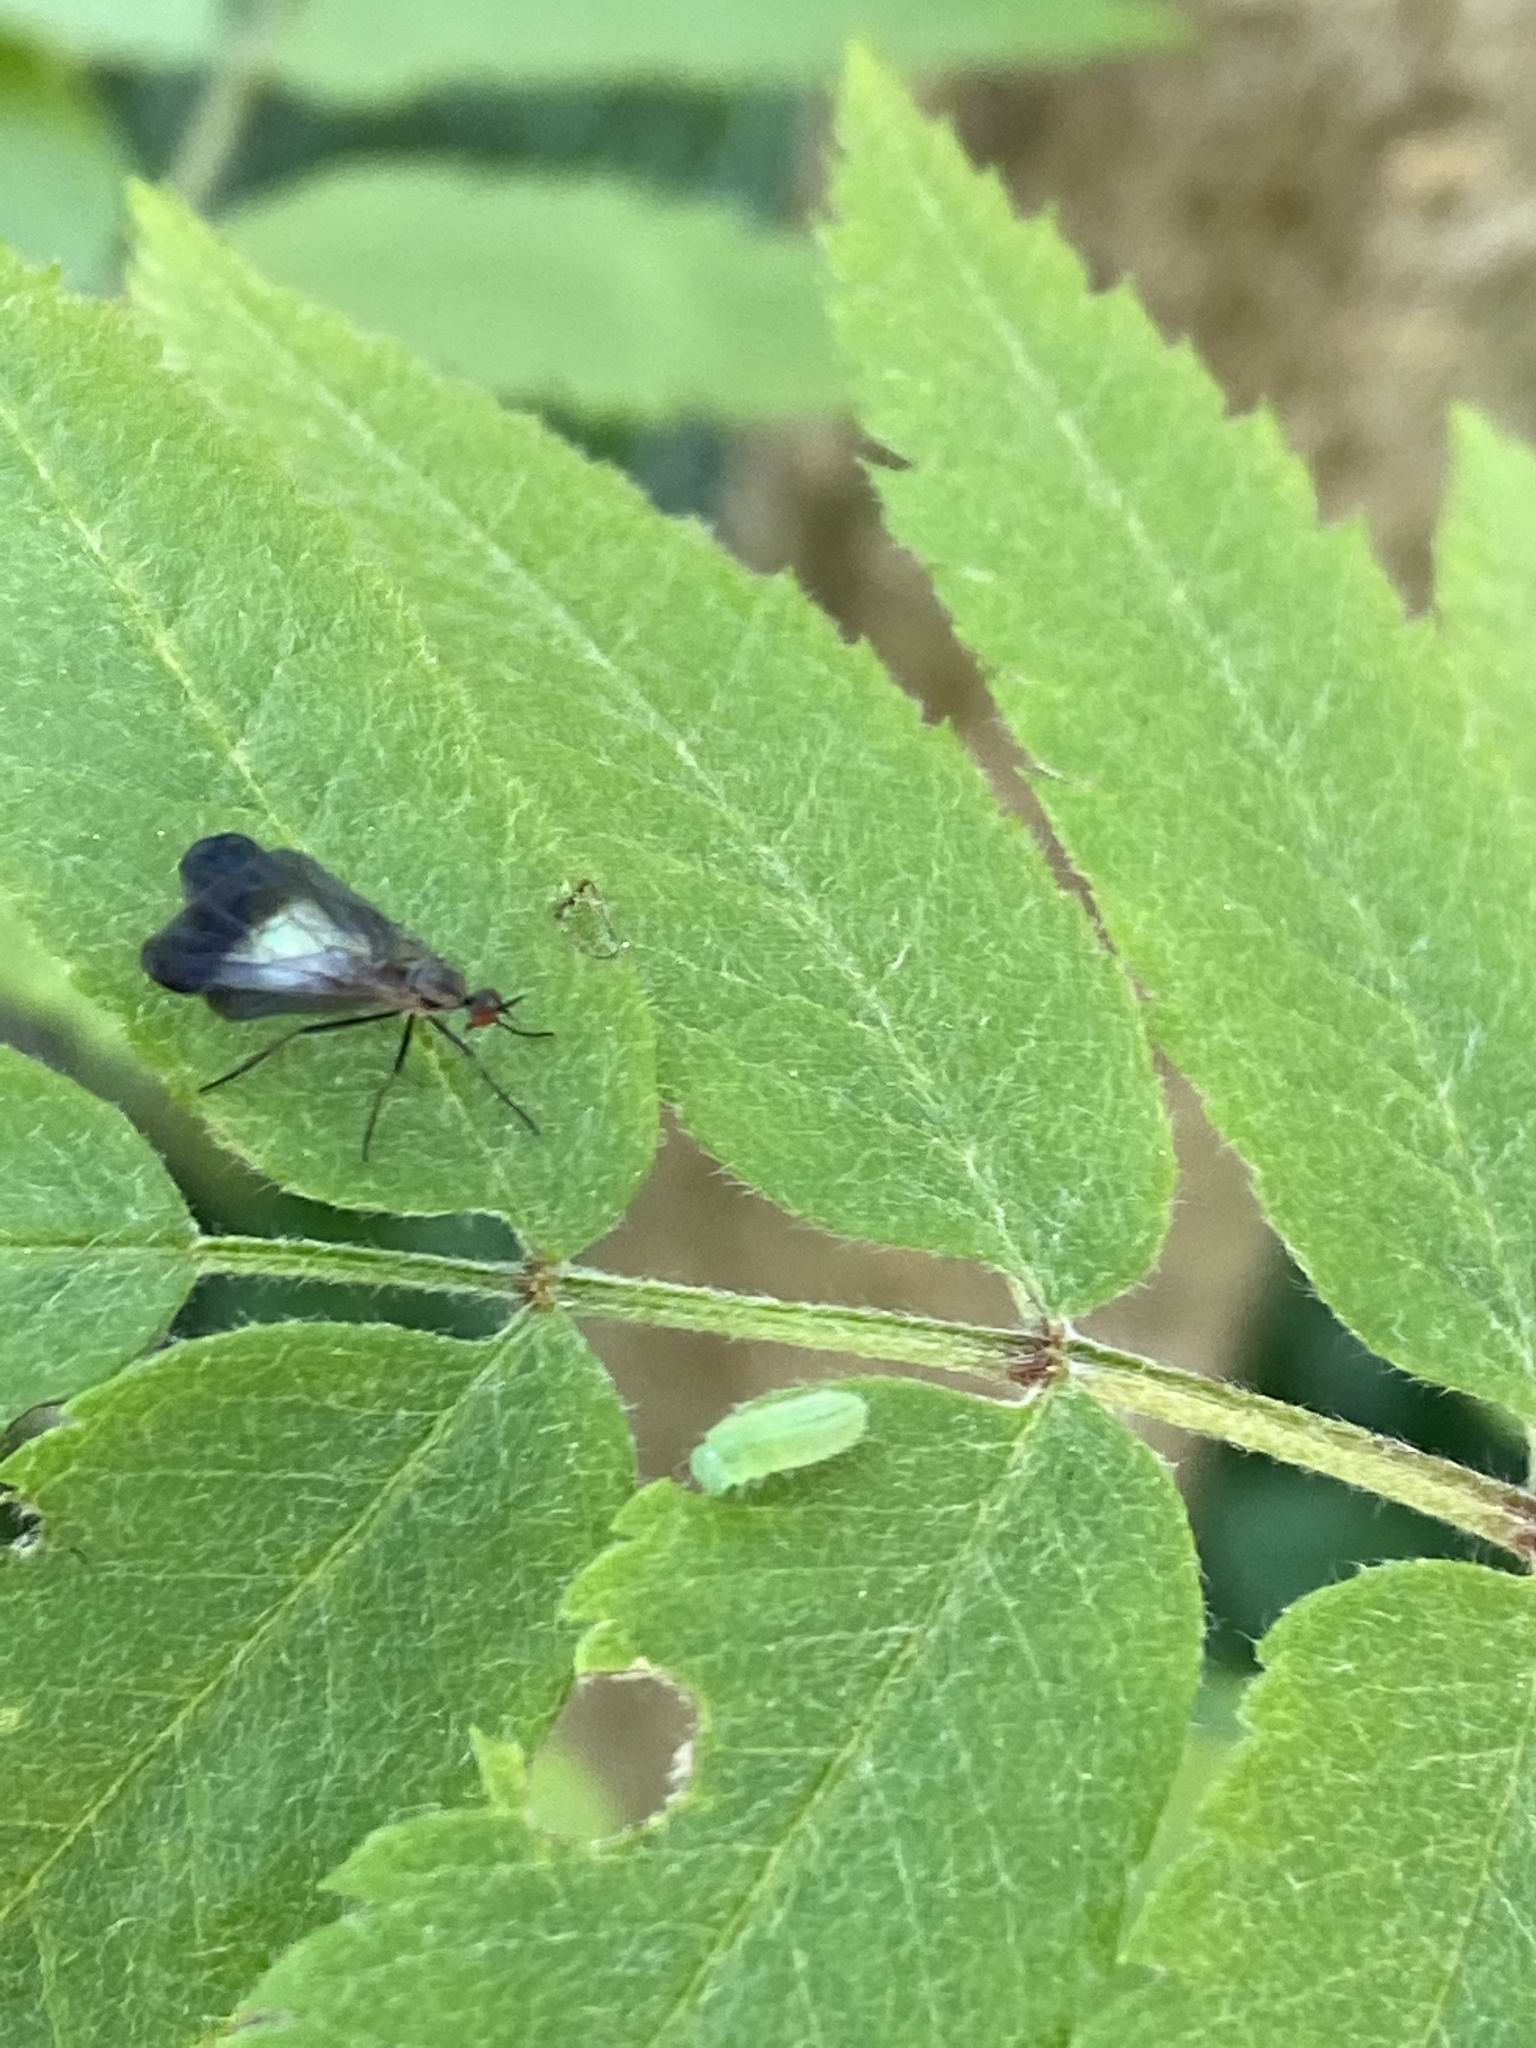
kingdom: Animalia
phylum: Arthropoda
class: Insecta
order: Diptera
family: Empididae
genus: Rhamphomyia
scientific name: Rhamphomyia marginata
